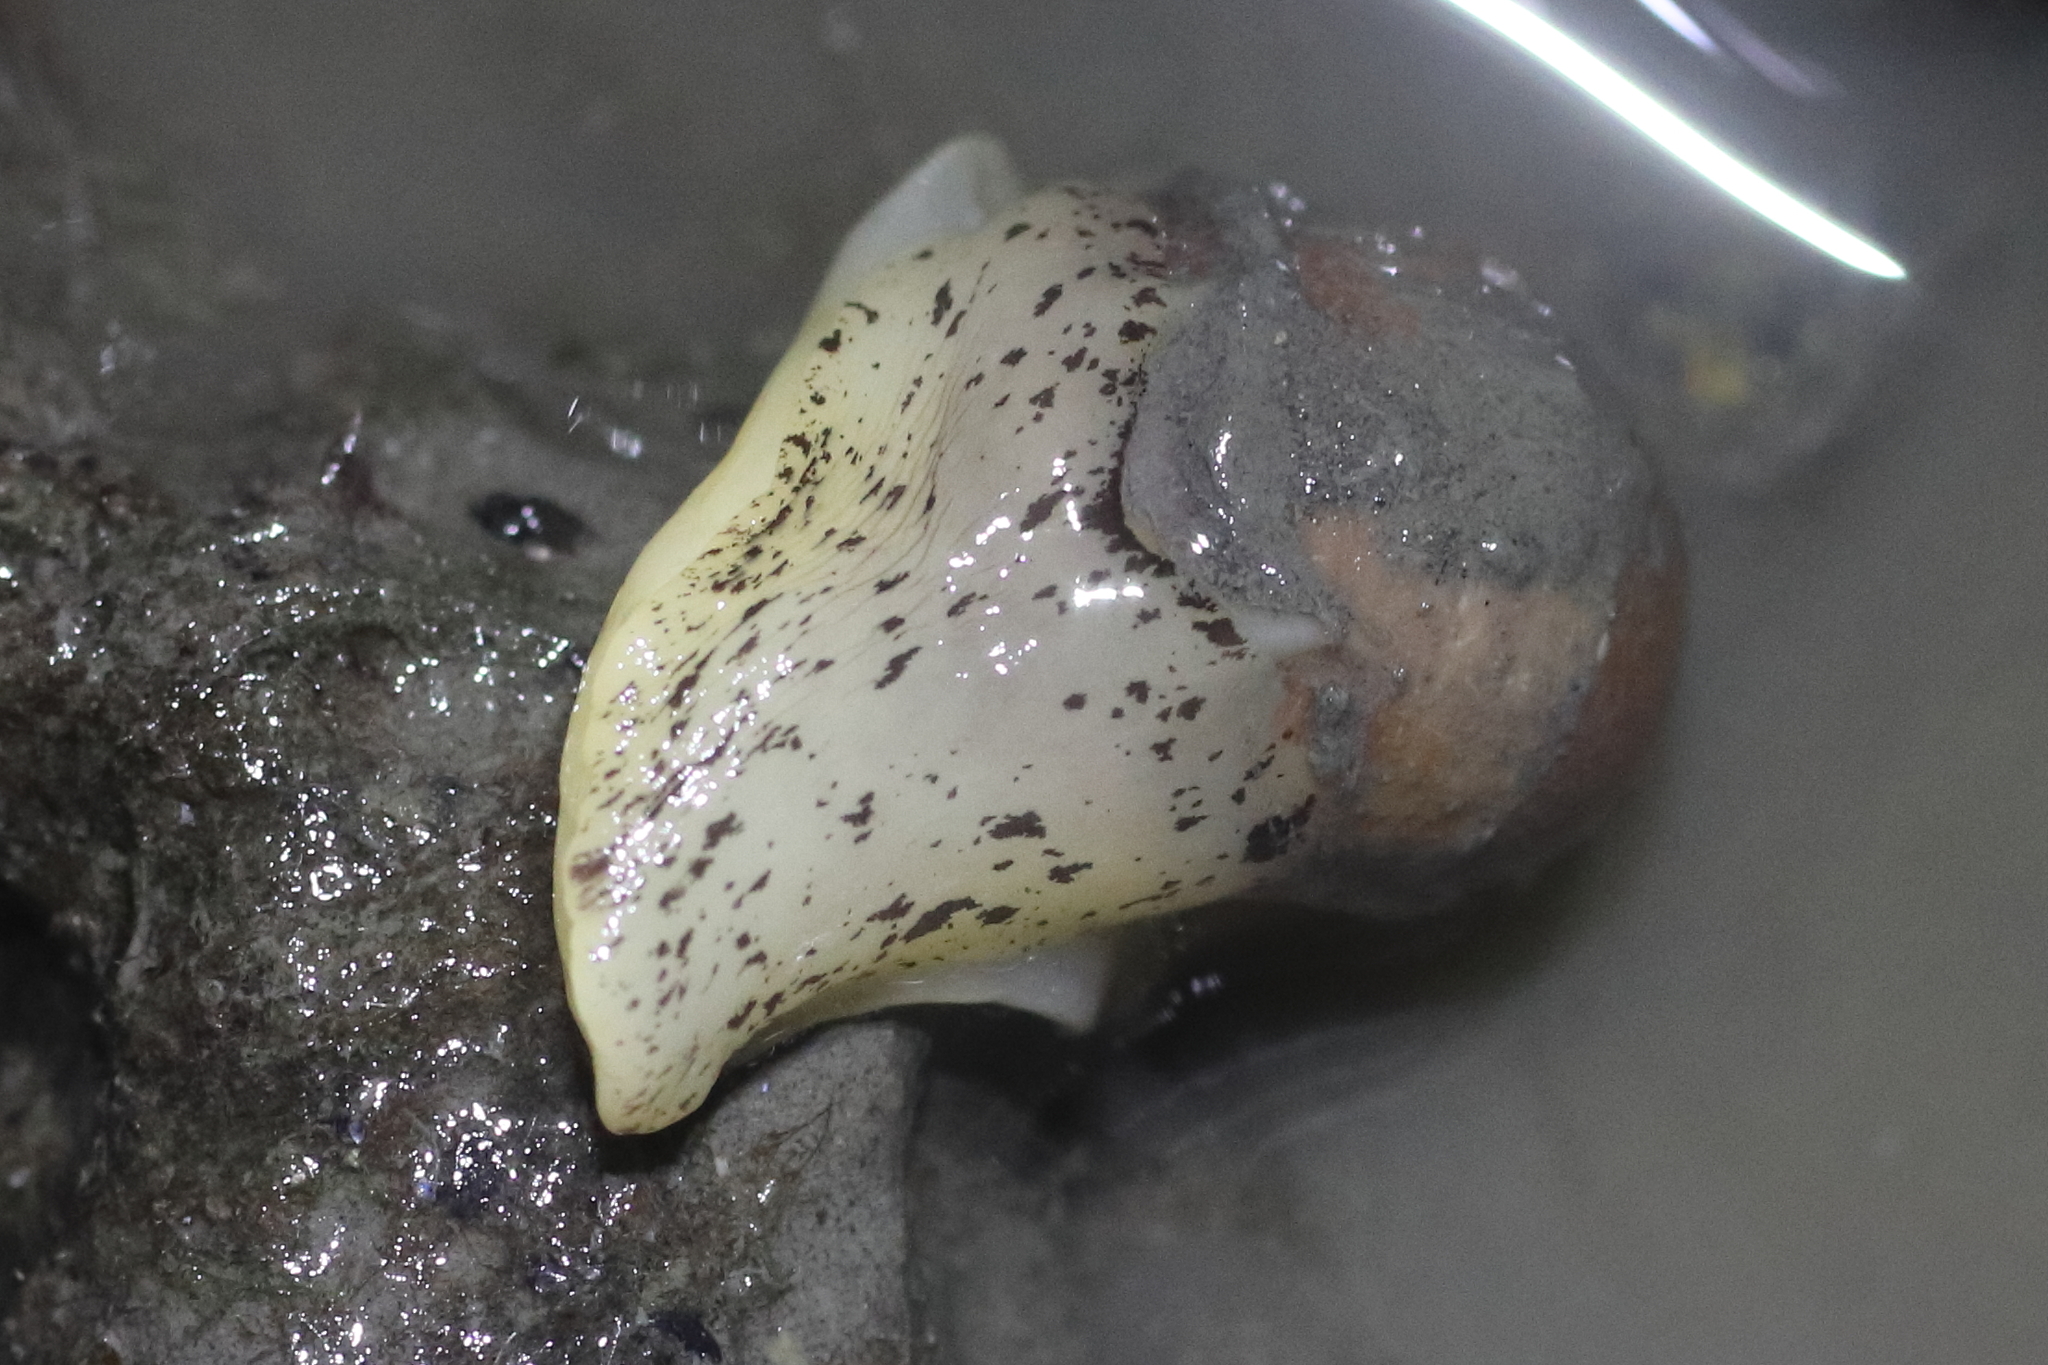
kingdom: Animalia
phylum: Mollusca
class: Gastropoda
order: Littorinimorpha
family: Naticidae
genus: Cryptonatica
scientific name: Cryptonatica aleutica
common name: Aleutian moon snail
